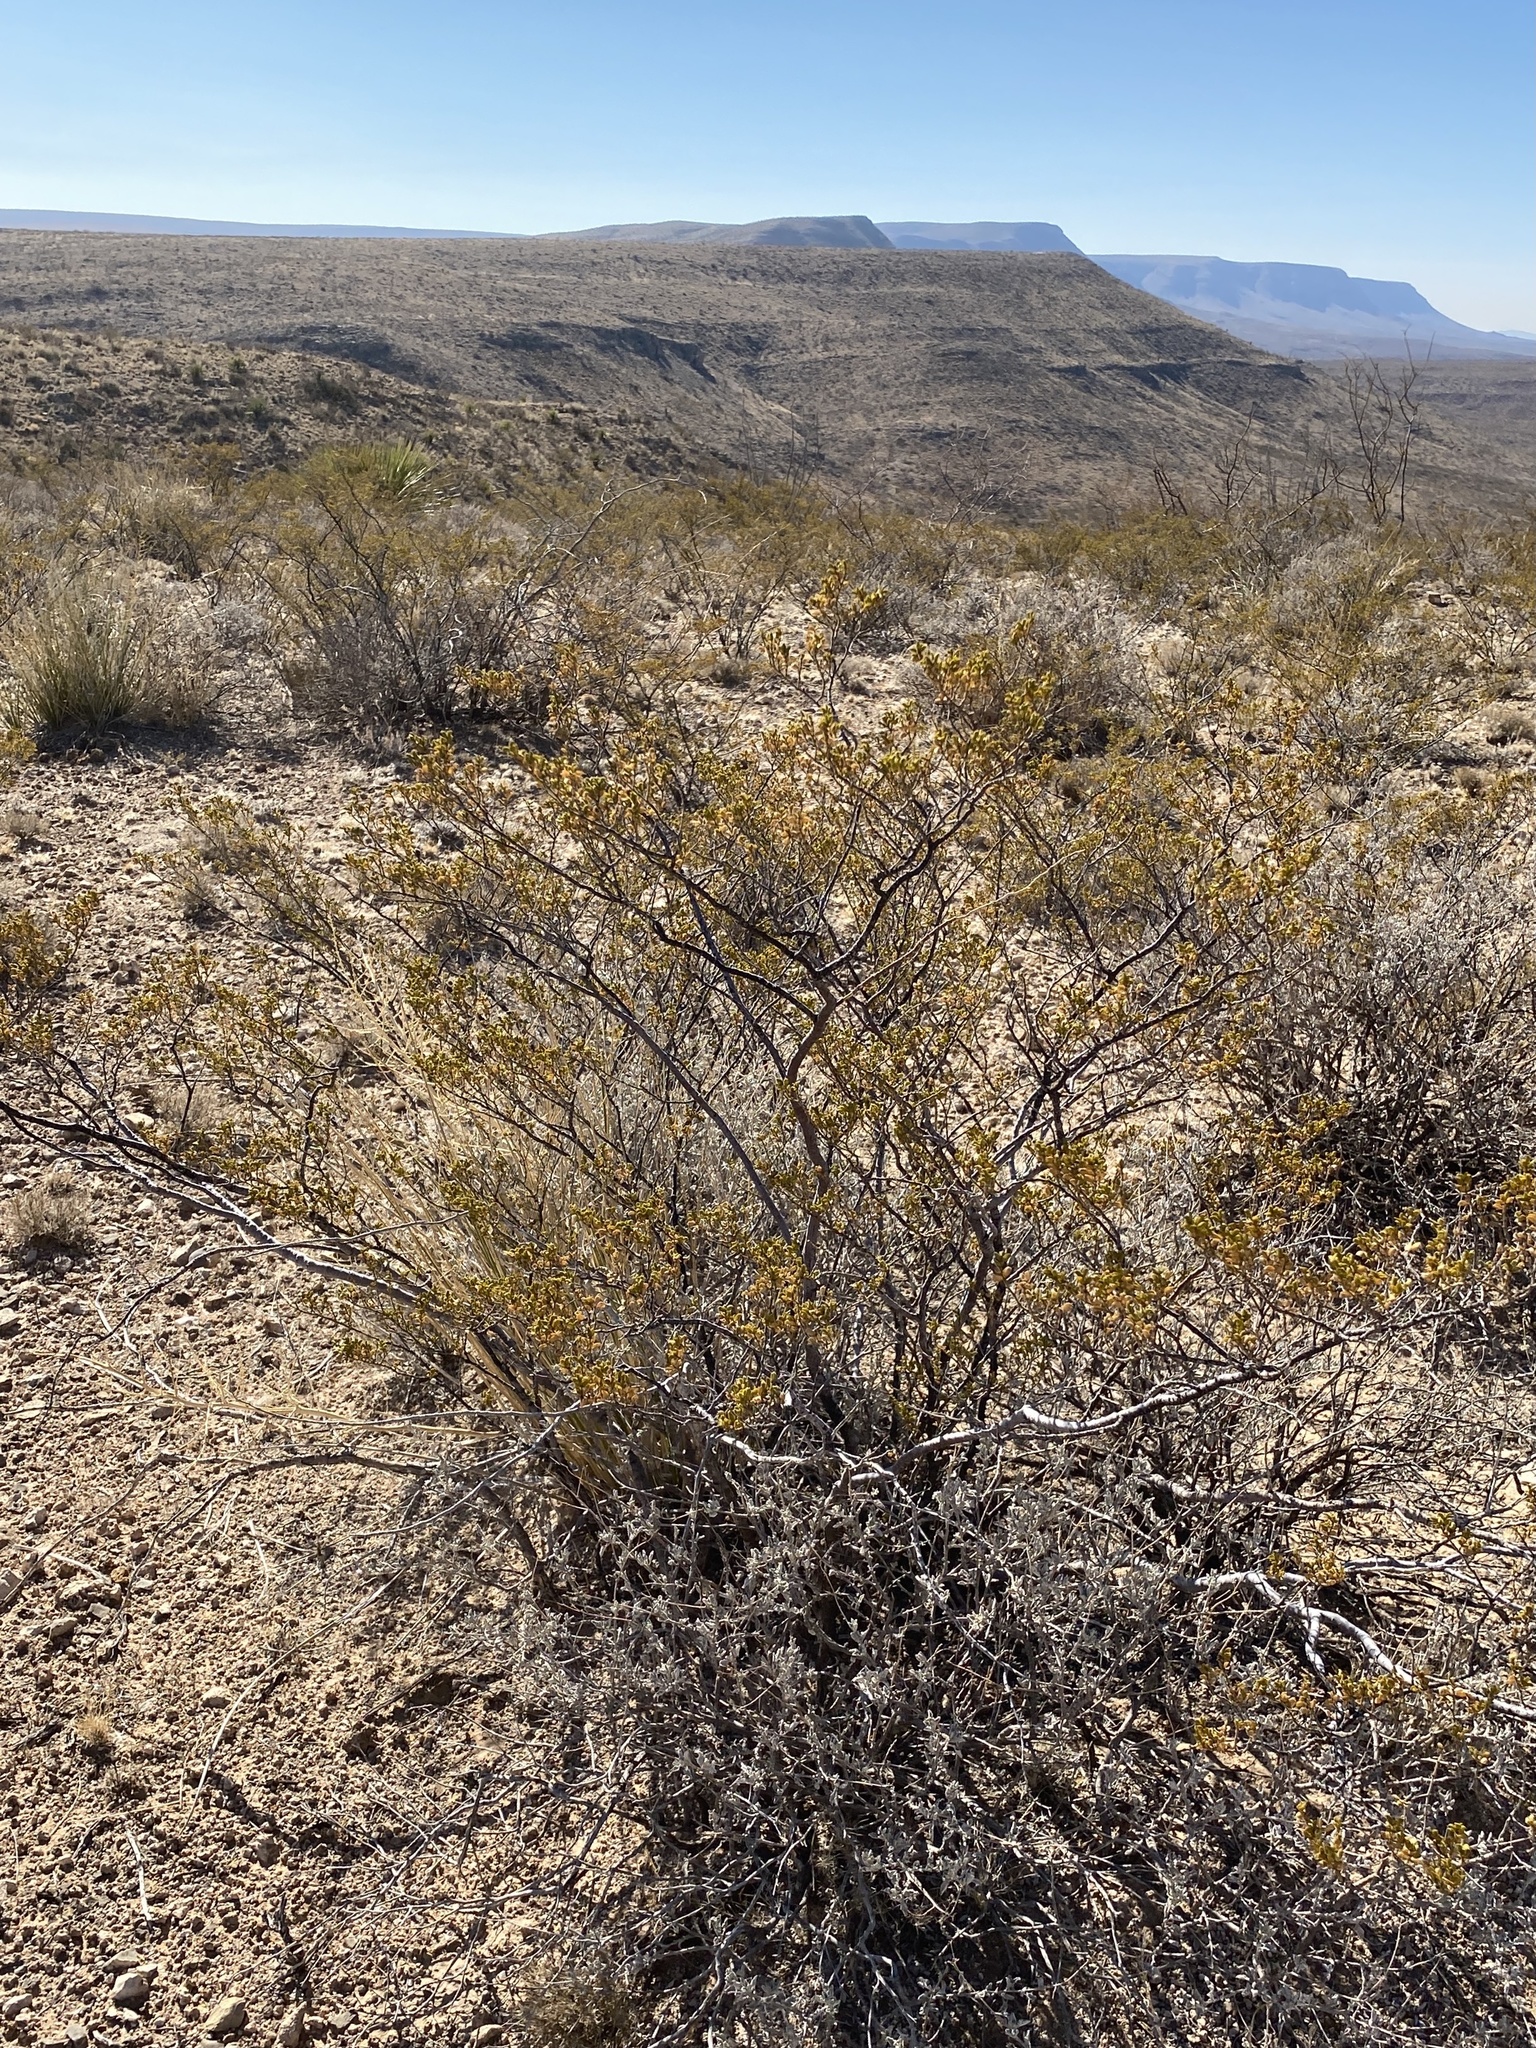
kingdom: Plantae
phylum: Tracheophyta
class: Magnoliopsida
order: Zygophyllales
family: Zygophyllaceae
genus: Larrea
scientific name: Larrea tridentata
